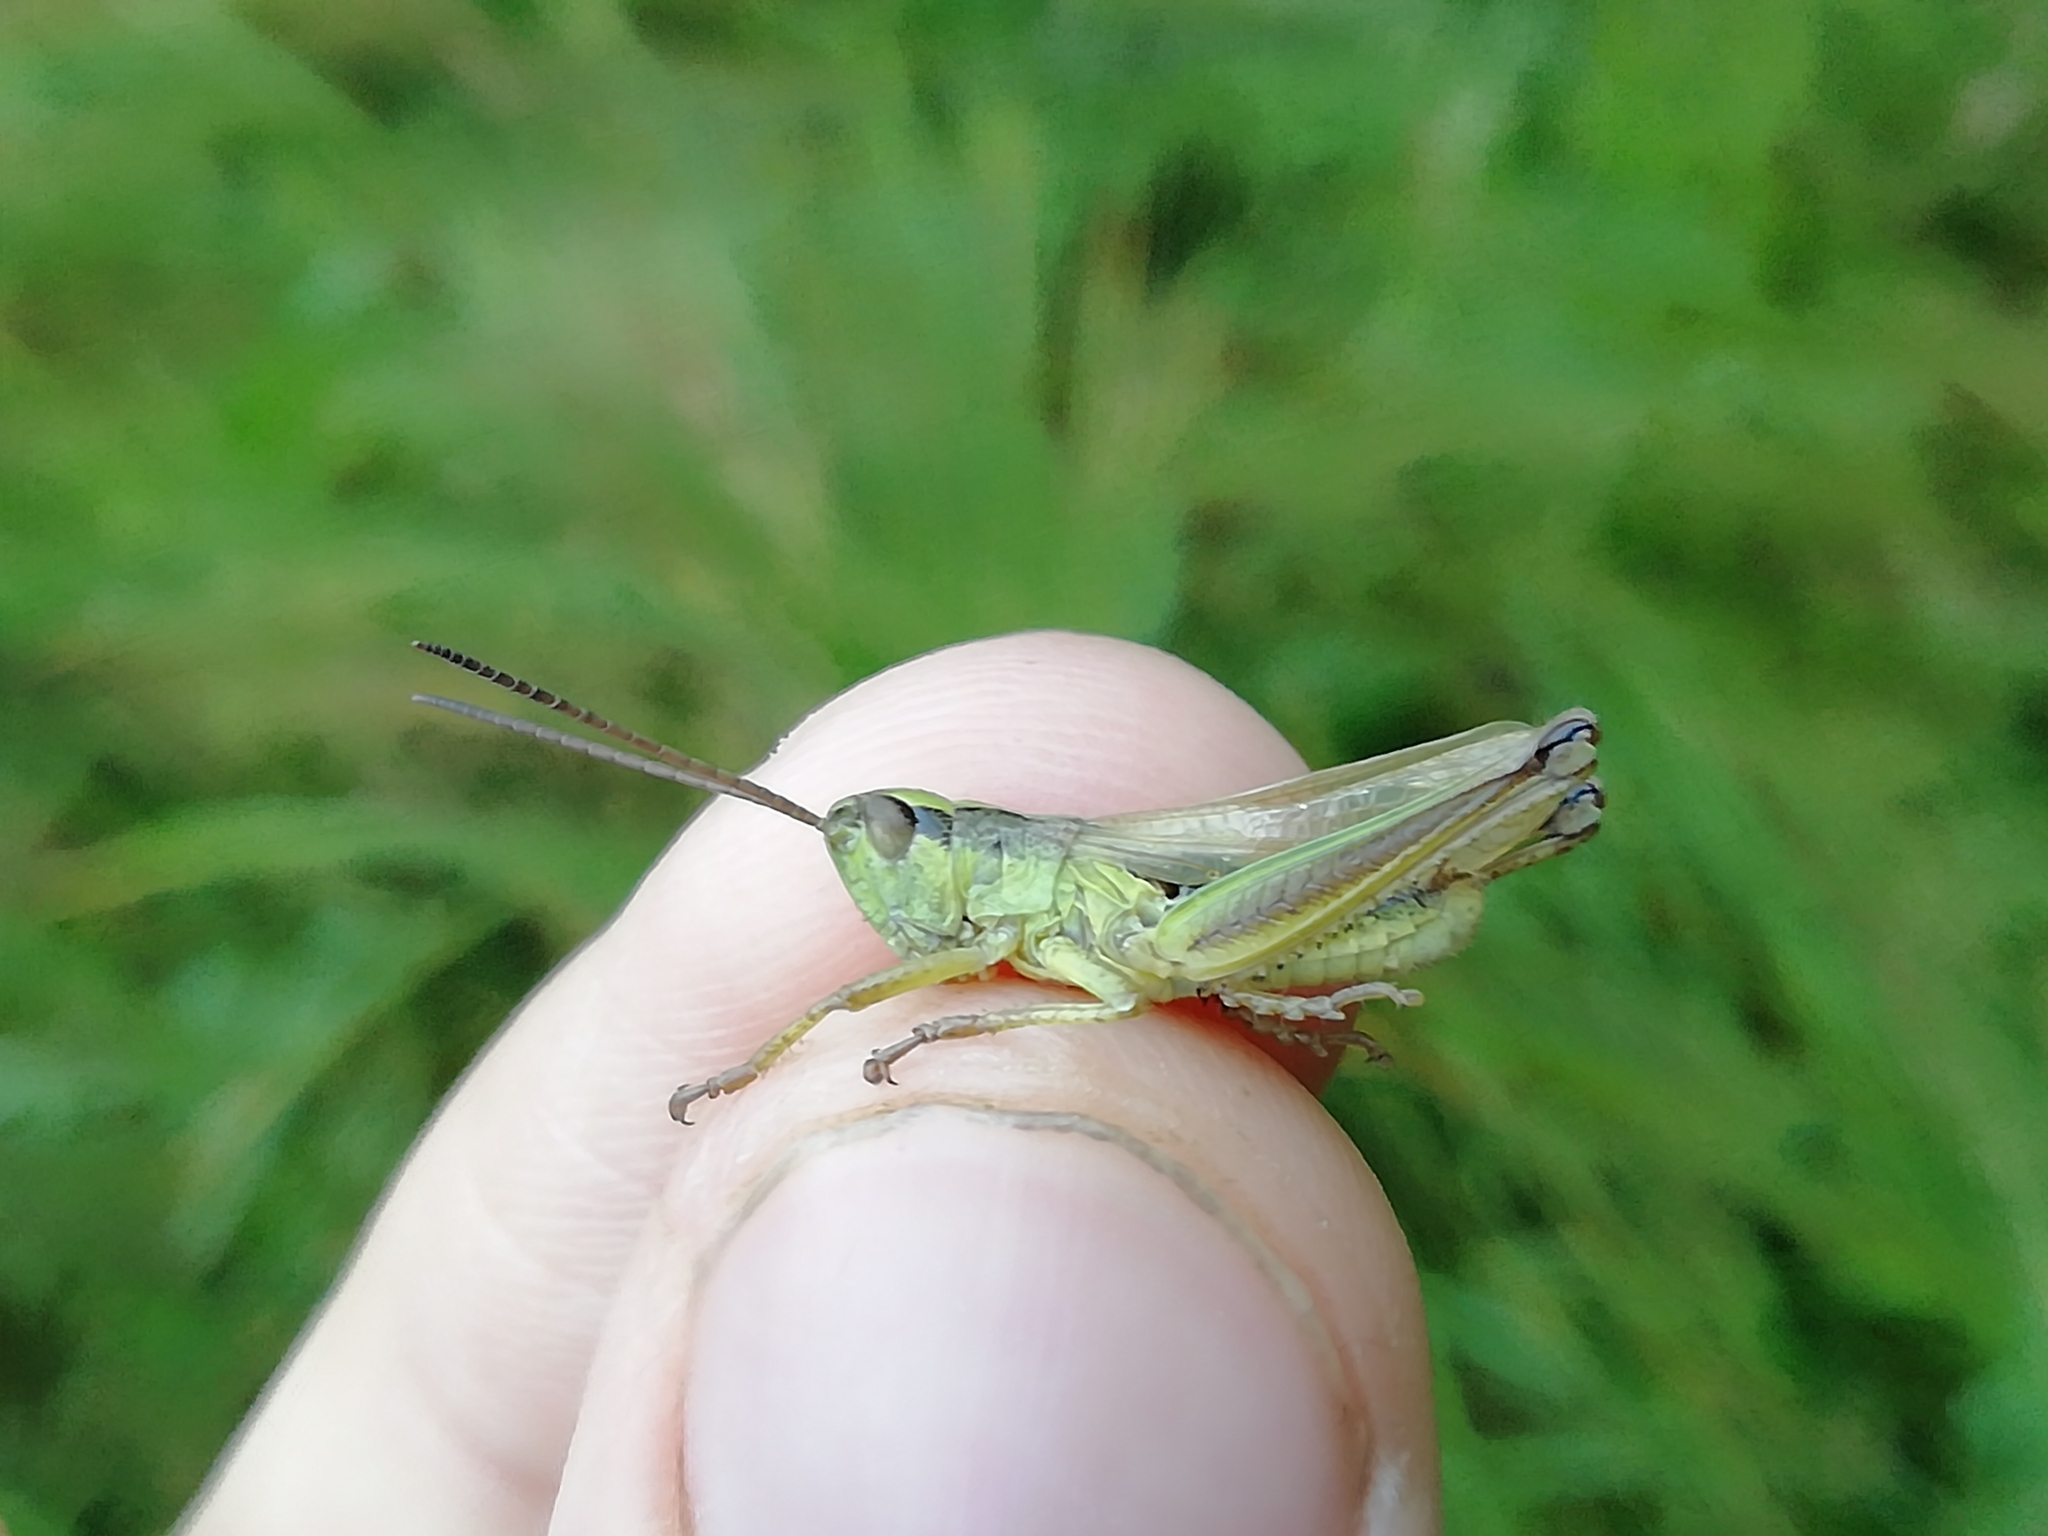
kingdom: Animalia
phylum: Arthropoda
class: Insecta
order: Orthoptera
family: Acrididae
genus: Chorthippus
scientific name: Chorthippus fallax
